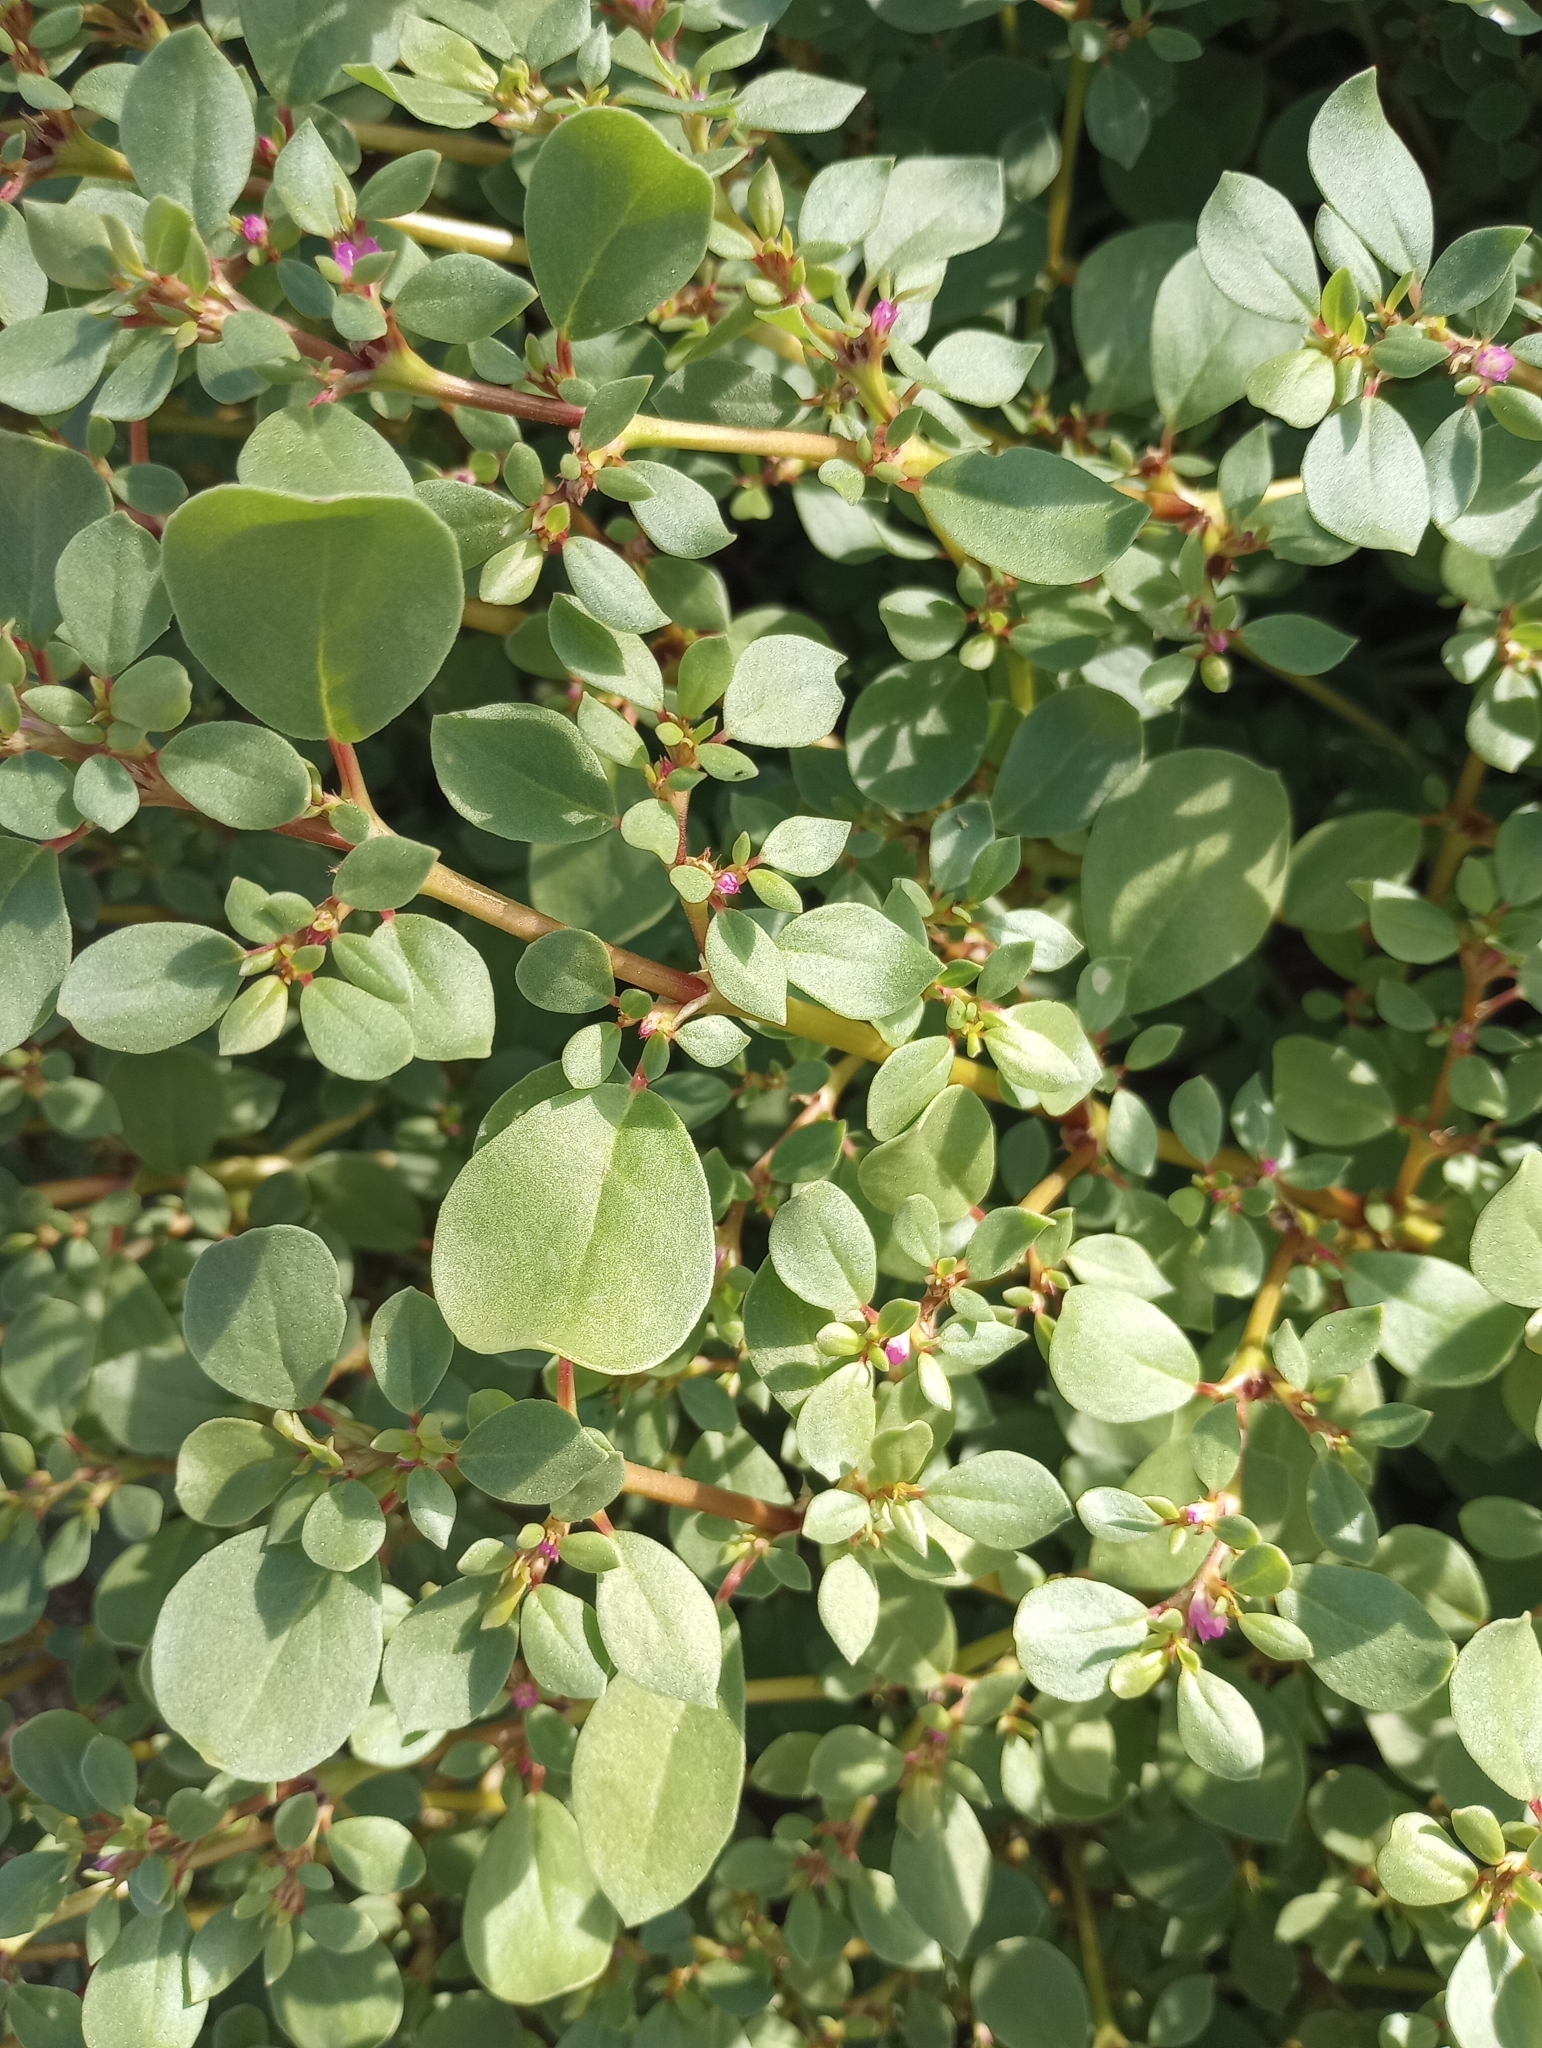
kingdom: Plantae
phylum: Tracheophyta
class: Magnoliopsida
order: Caryophyllales
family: Aizoaceae
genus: Trianthema
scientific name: Trianthema portulacastrum
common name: Desert horsepurslane
